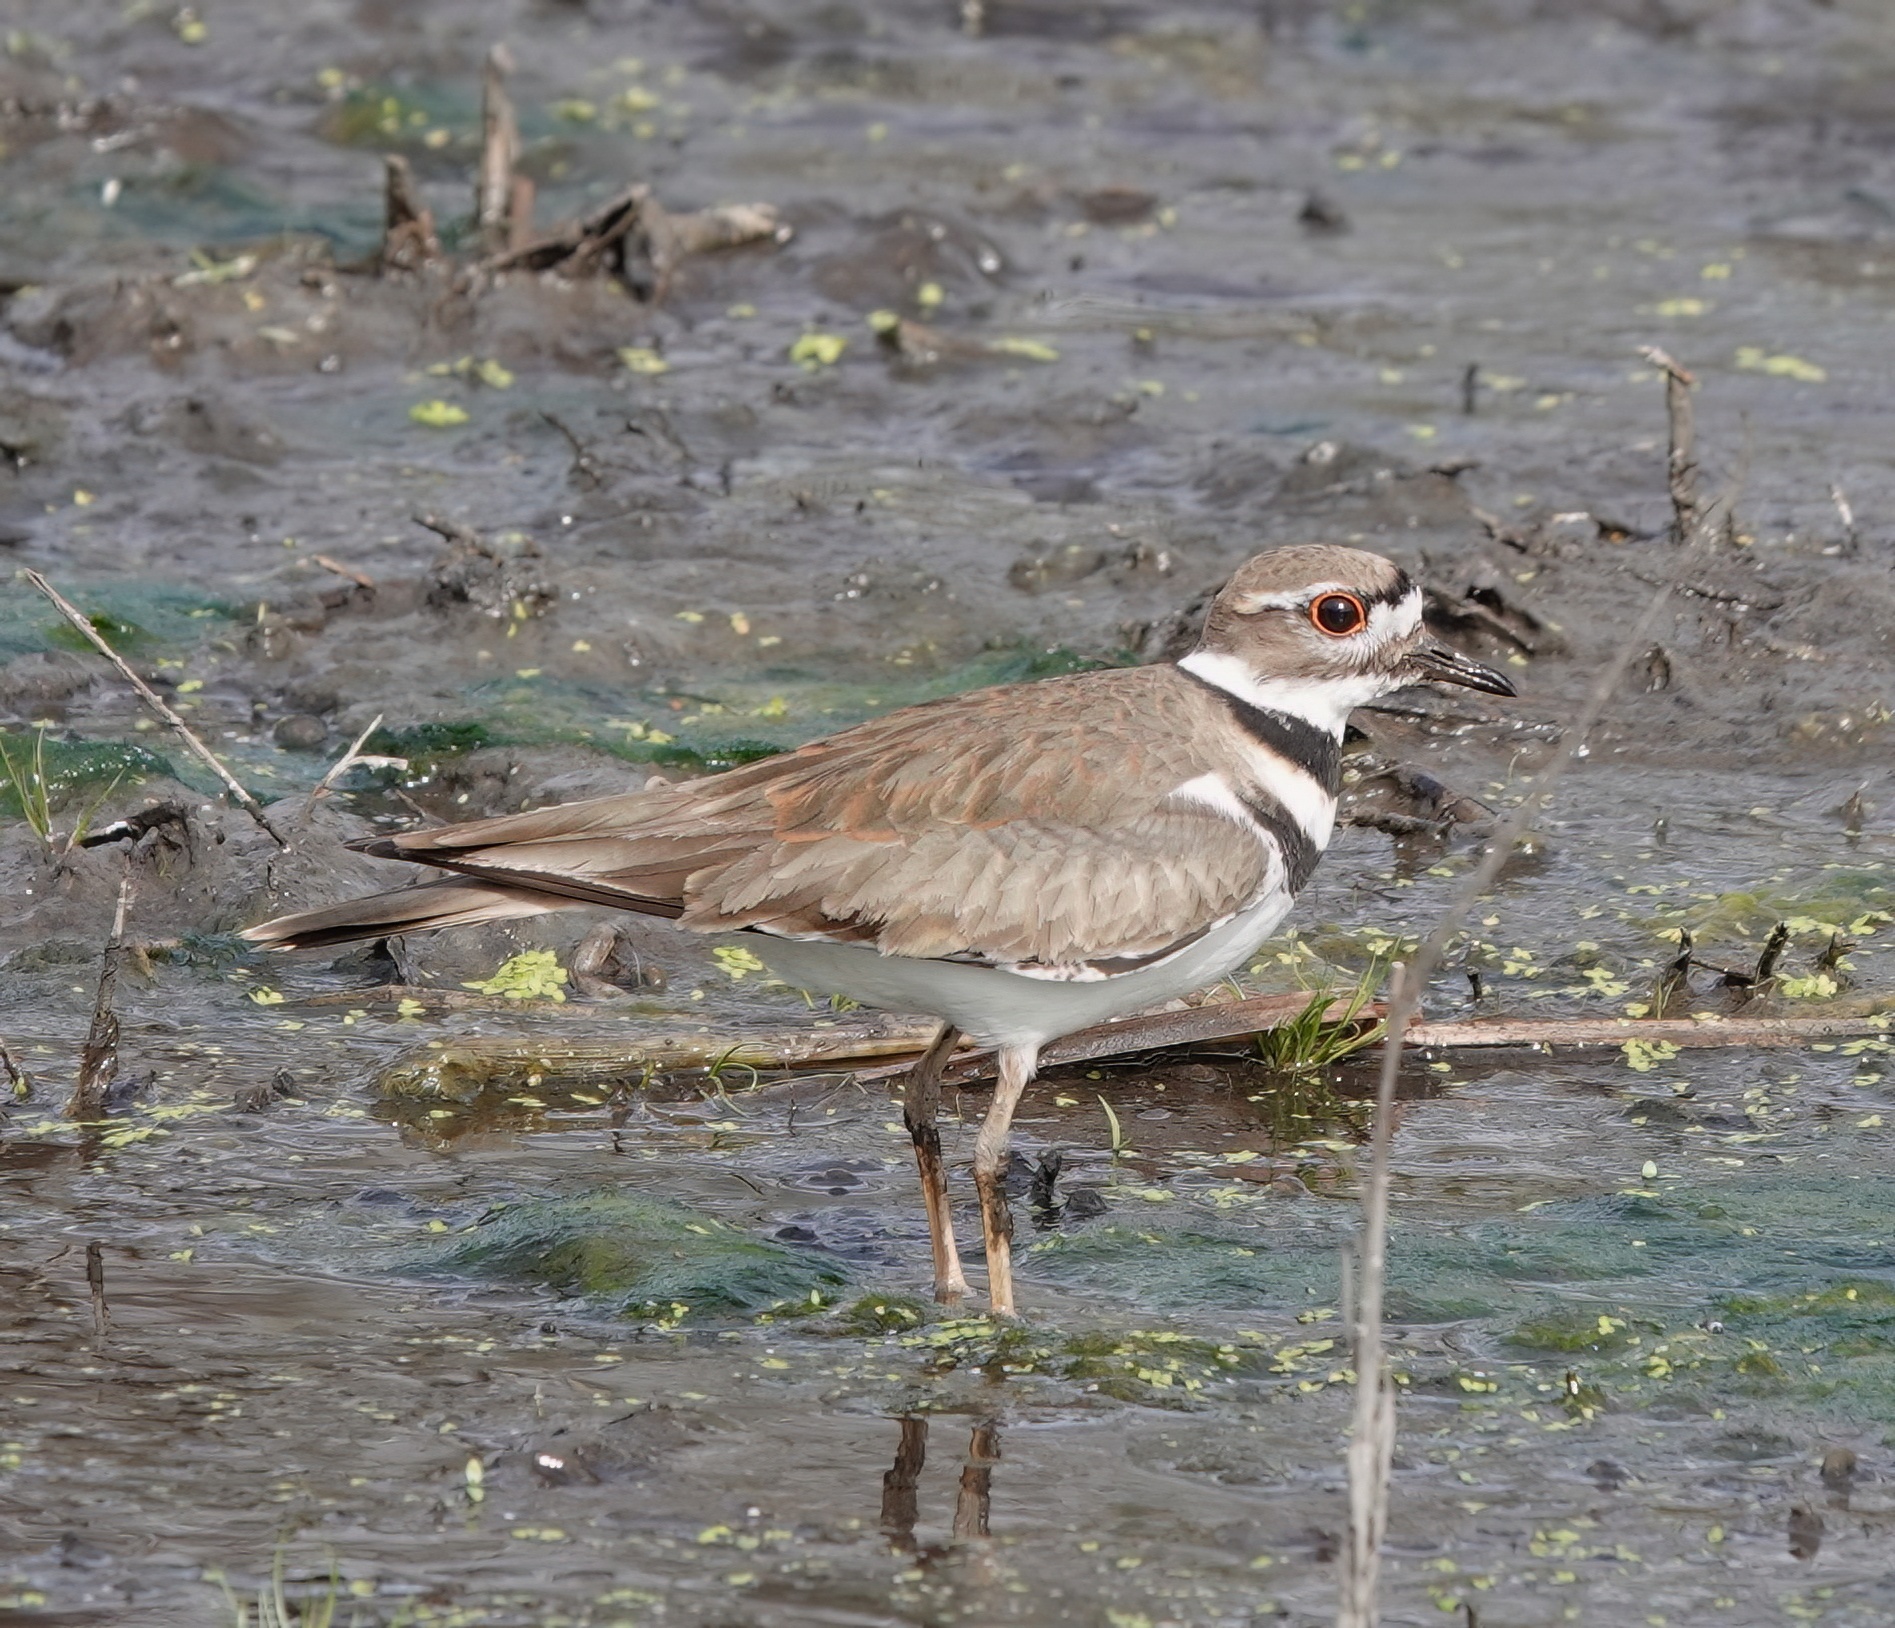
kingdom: Animalia
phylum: Chordata
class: Aves
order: Charadriiformes
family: Charadriidae
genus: Charadrius
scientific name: Charadrius vociferus
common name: Killdeer
